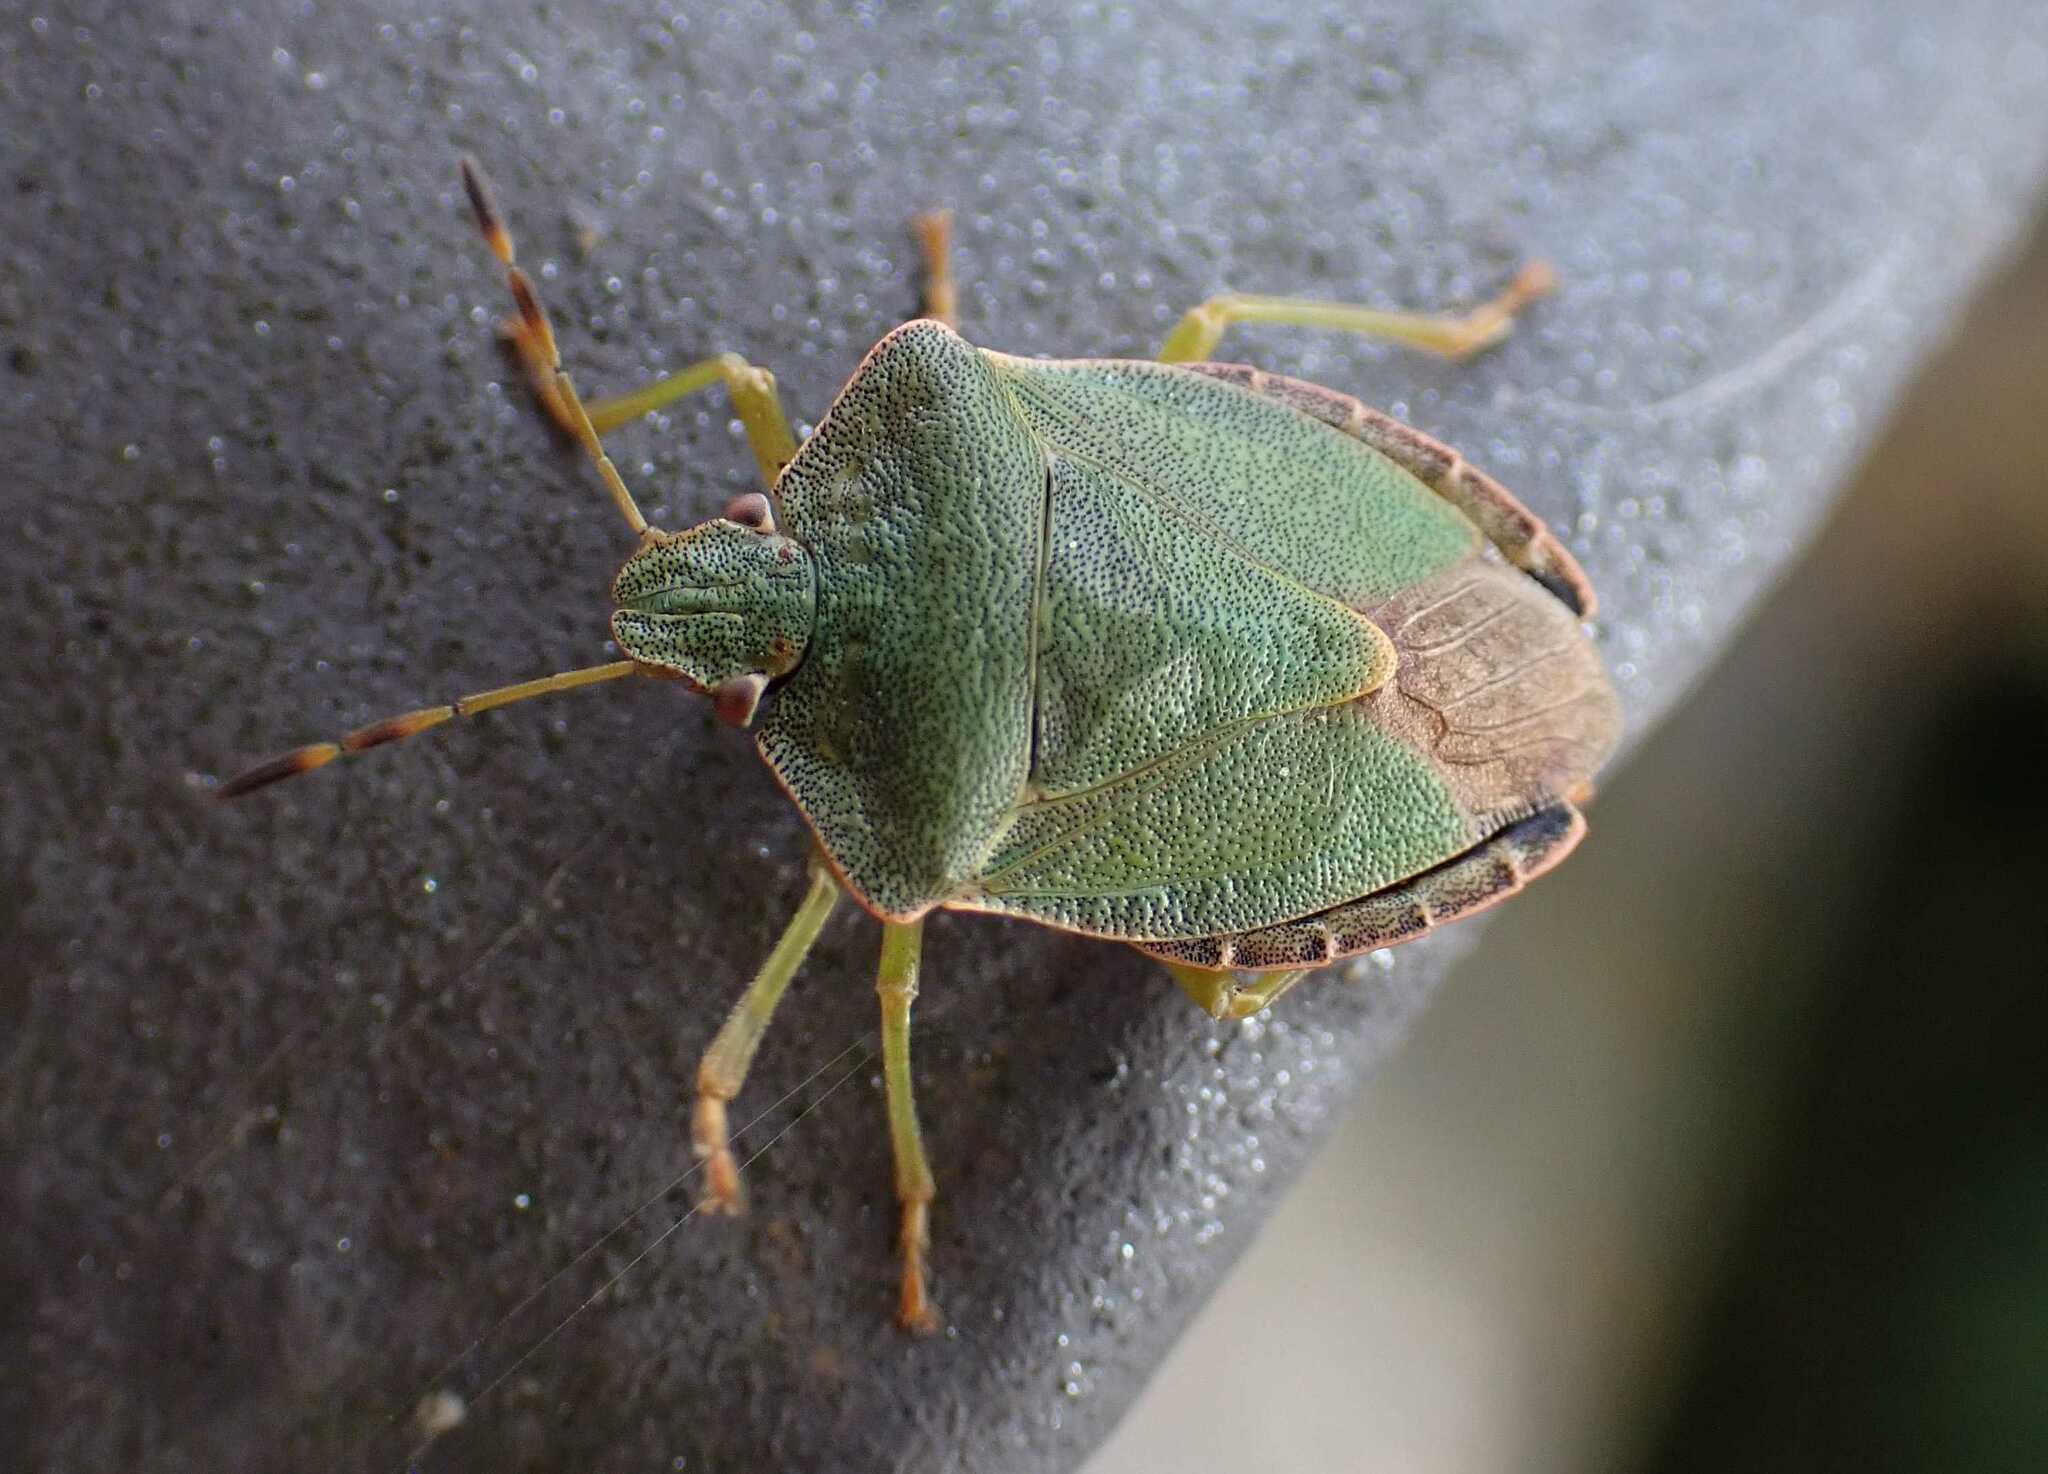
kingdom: Animalia
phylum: Arthropoda
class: Insecta
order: Hemiptera
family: Pentatomidae
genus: Palomena
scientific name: Palomena prasina
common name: Green shieldbug
